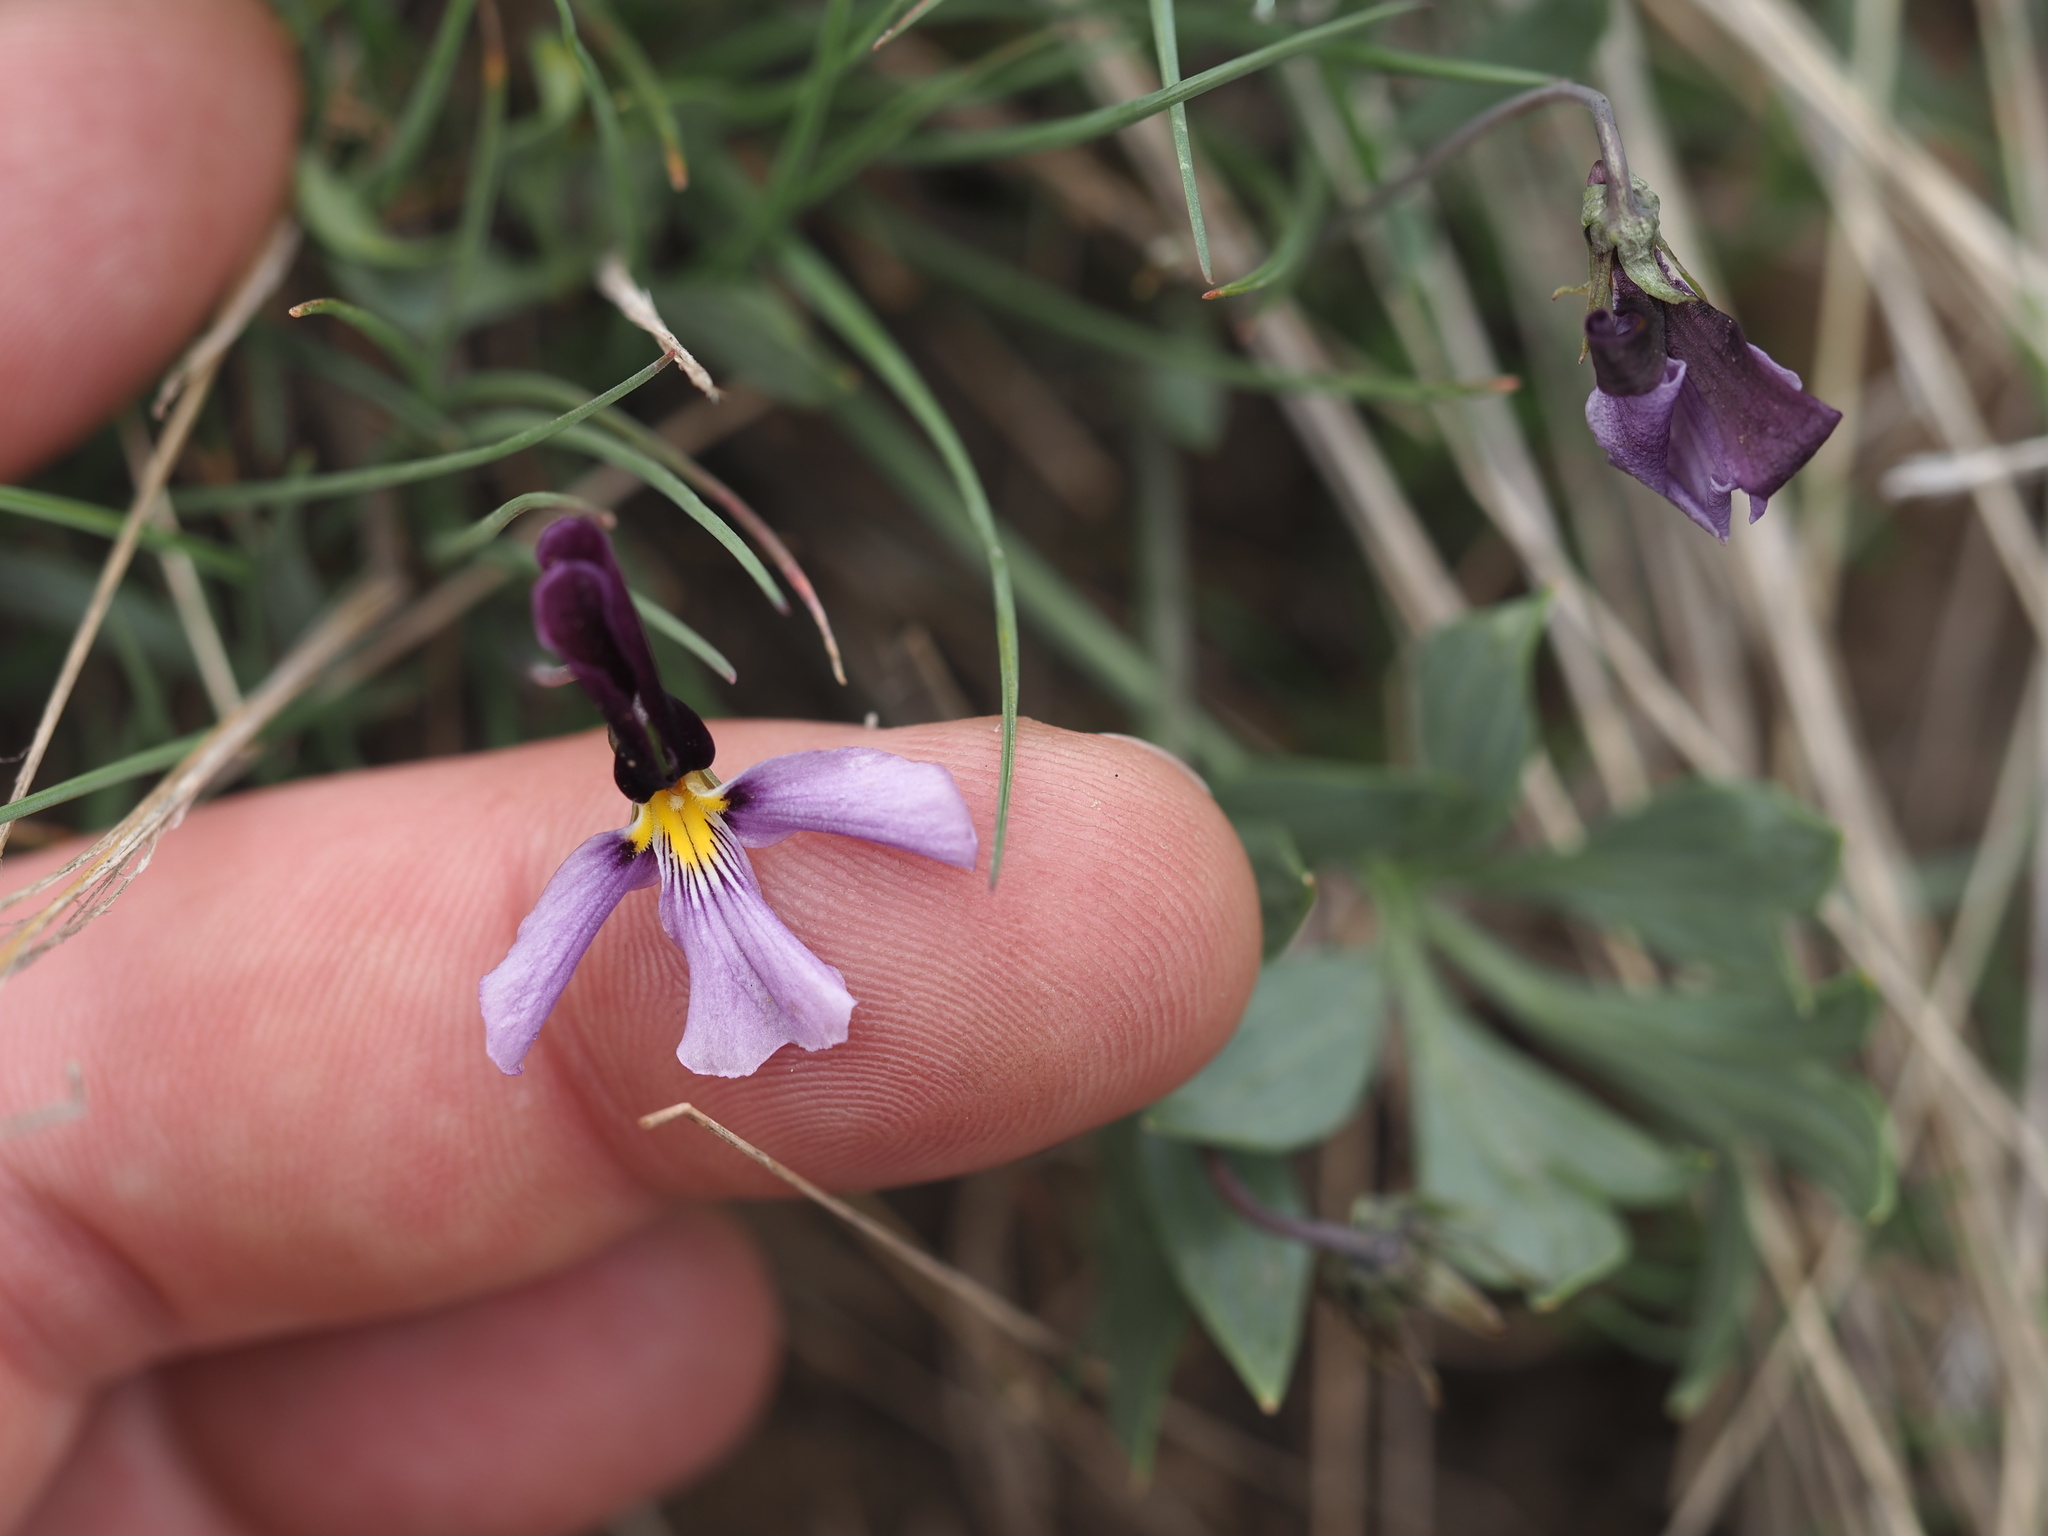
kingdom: Plantae
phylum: Tracheophyta
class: Magnoliopsida
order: Malpighiales
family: Violaceae
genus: Viola
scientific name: Viola trinervata
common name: Sagebrush violet
